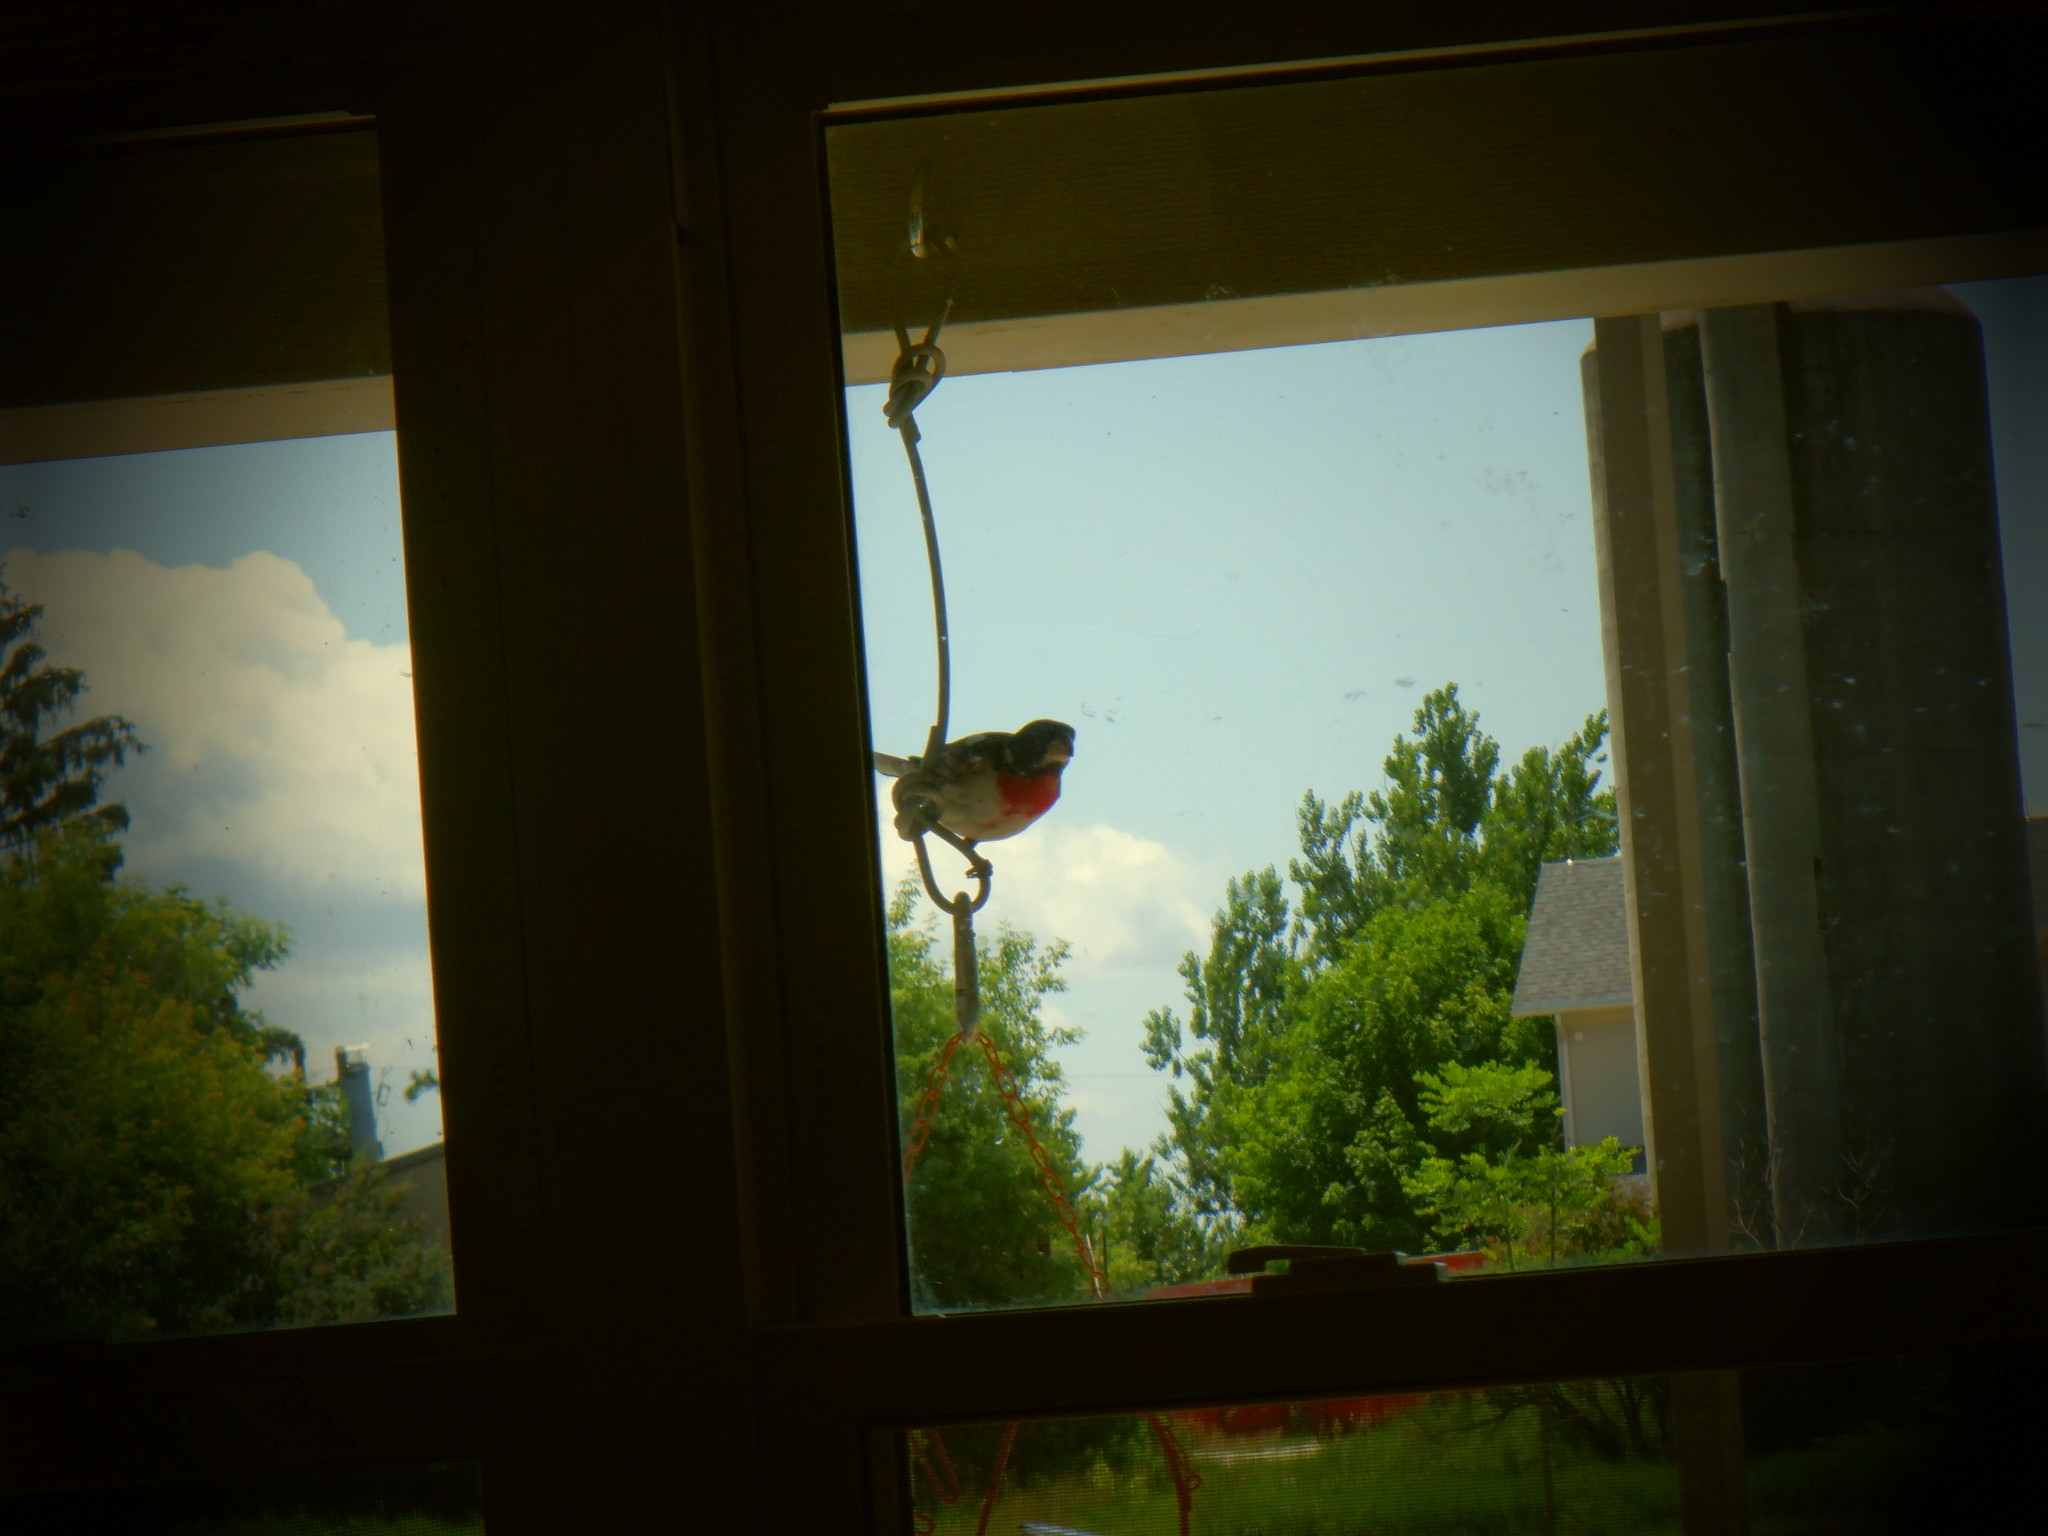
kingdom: Animalia
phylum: Chordata
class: Aves
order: Passeriformes
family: Cardinalidae
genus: Pheucticus
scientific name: Pheucticus ludovicianus
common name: Rose-breasted grosbeak
